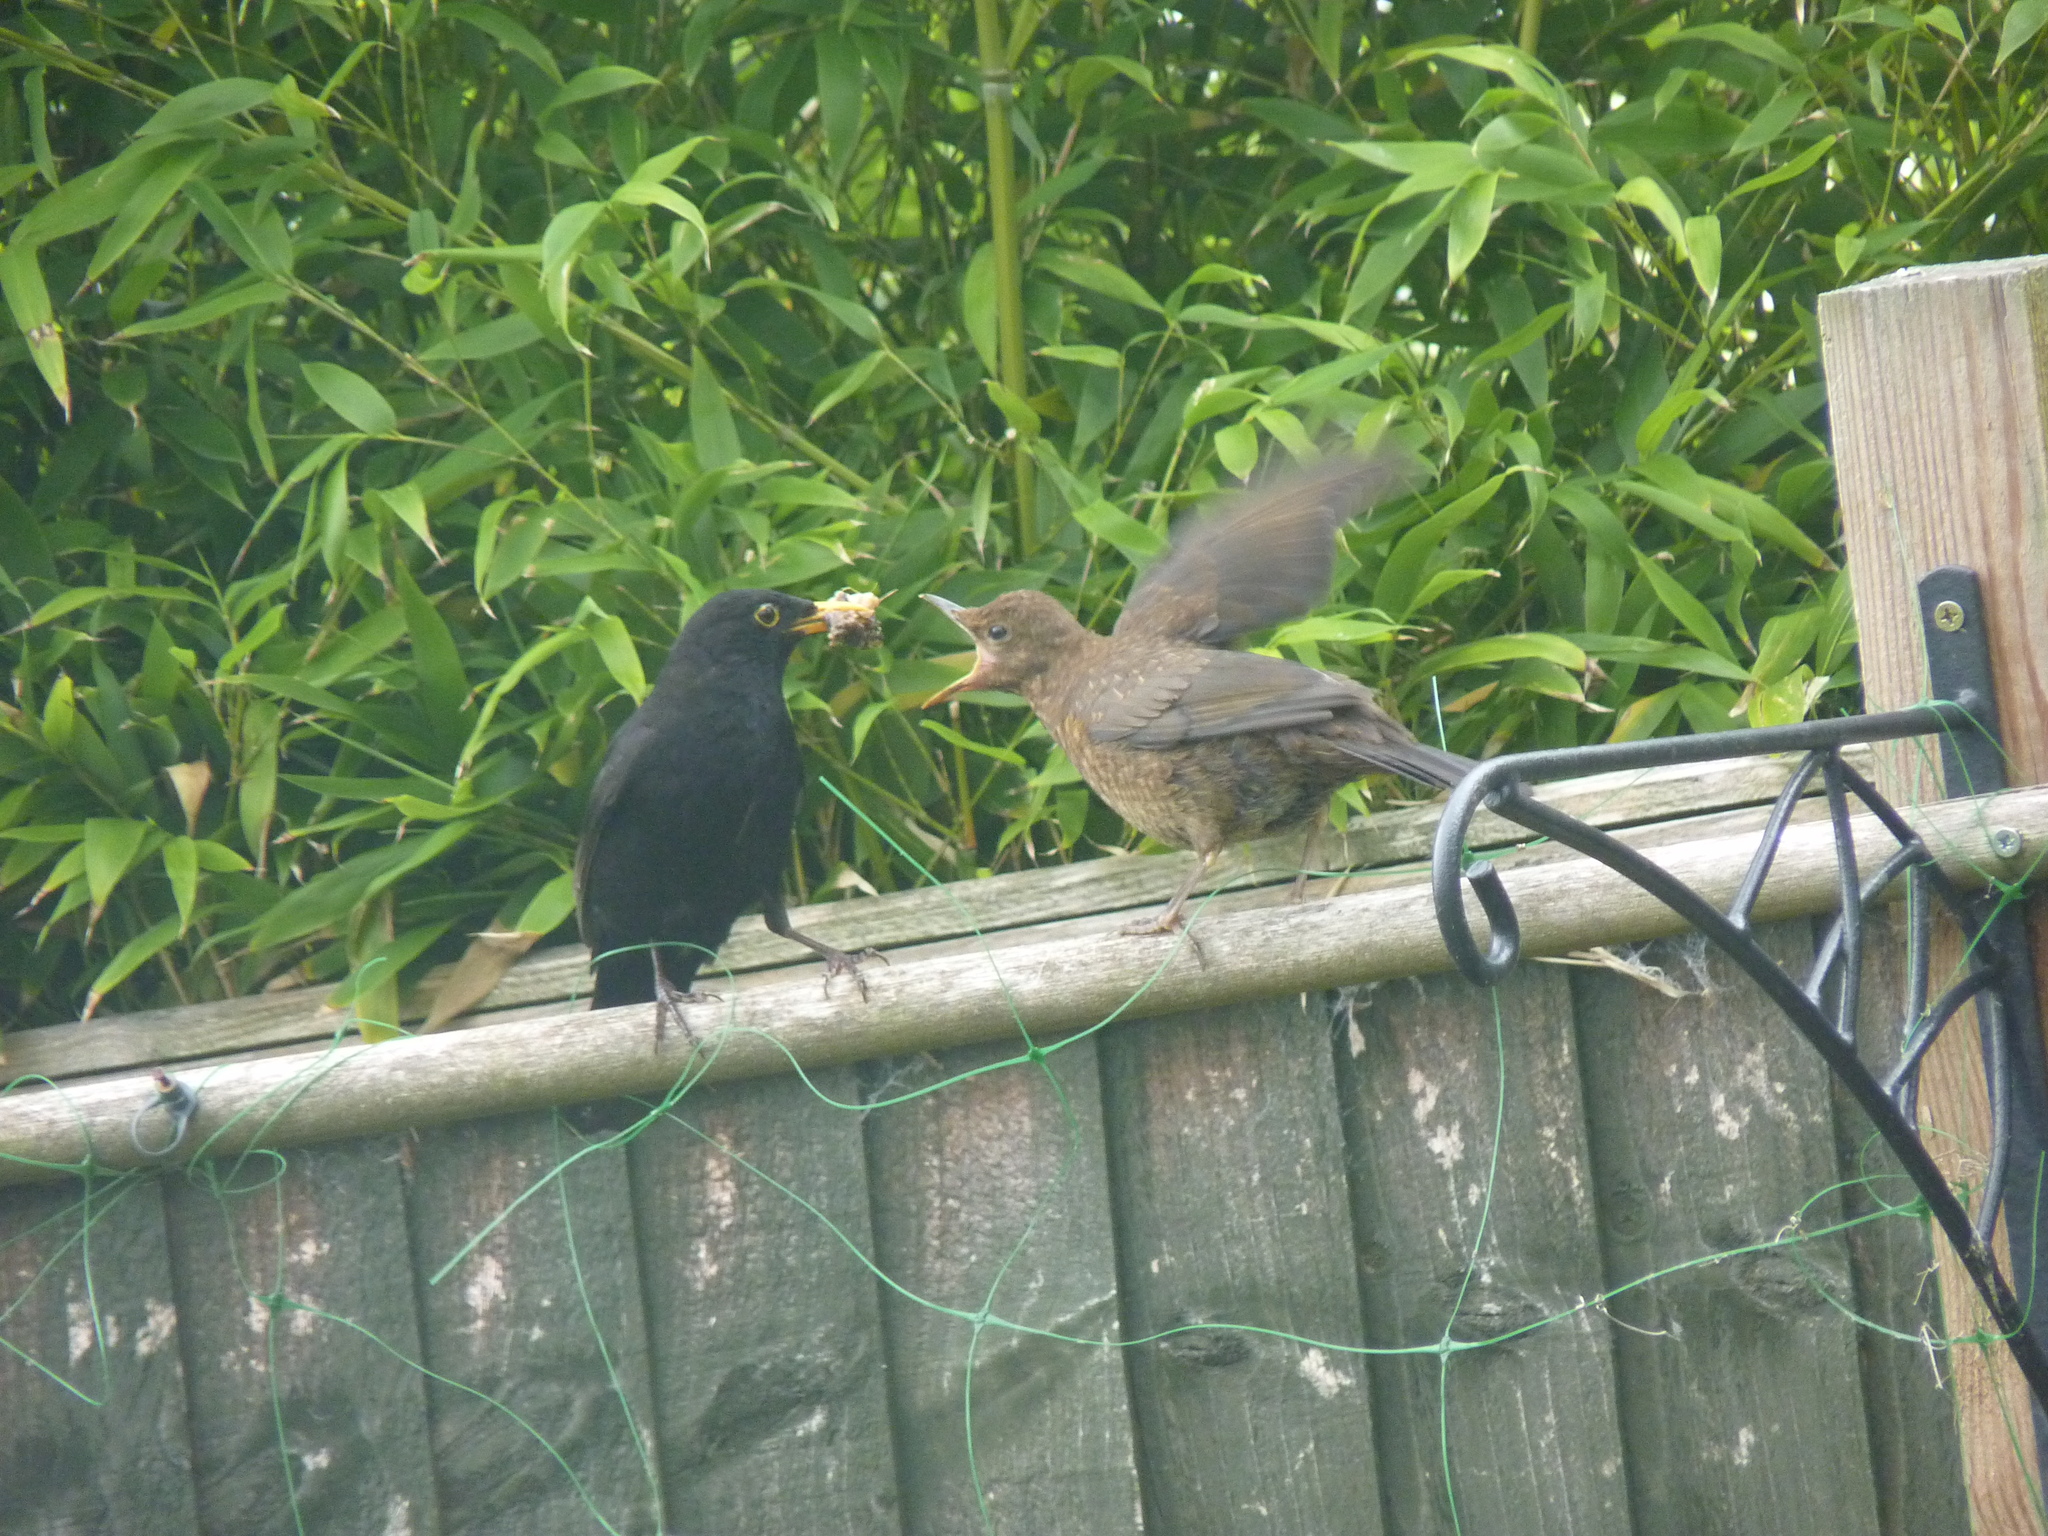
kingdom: Animalia
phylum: Chordata
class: Aves
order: Passeriformes
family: Turdidae
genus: Turdus
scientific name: Turdus merula
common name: Common blackbird
